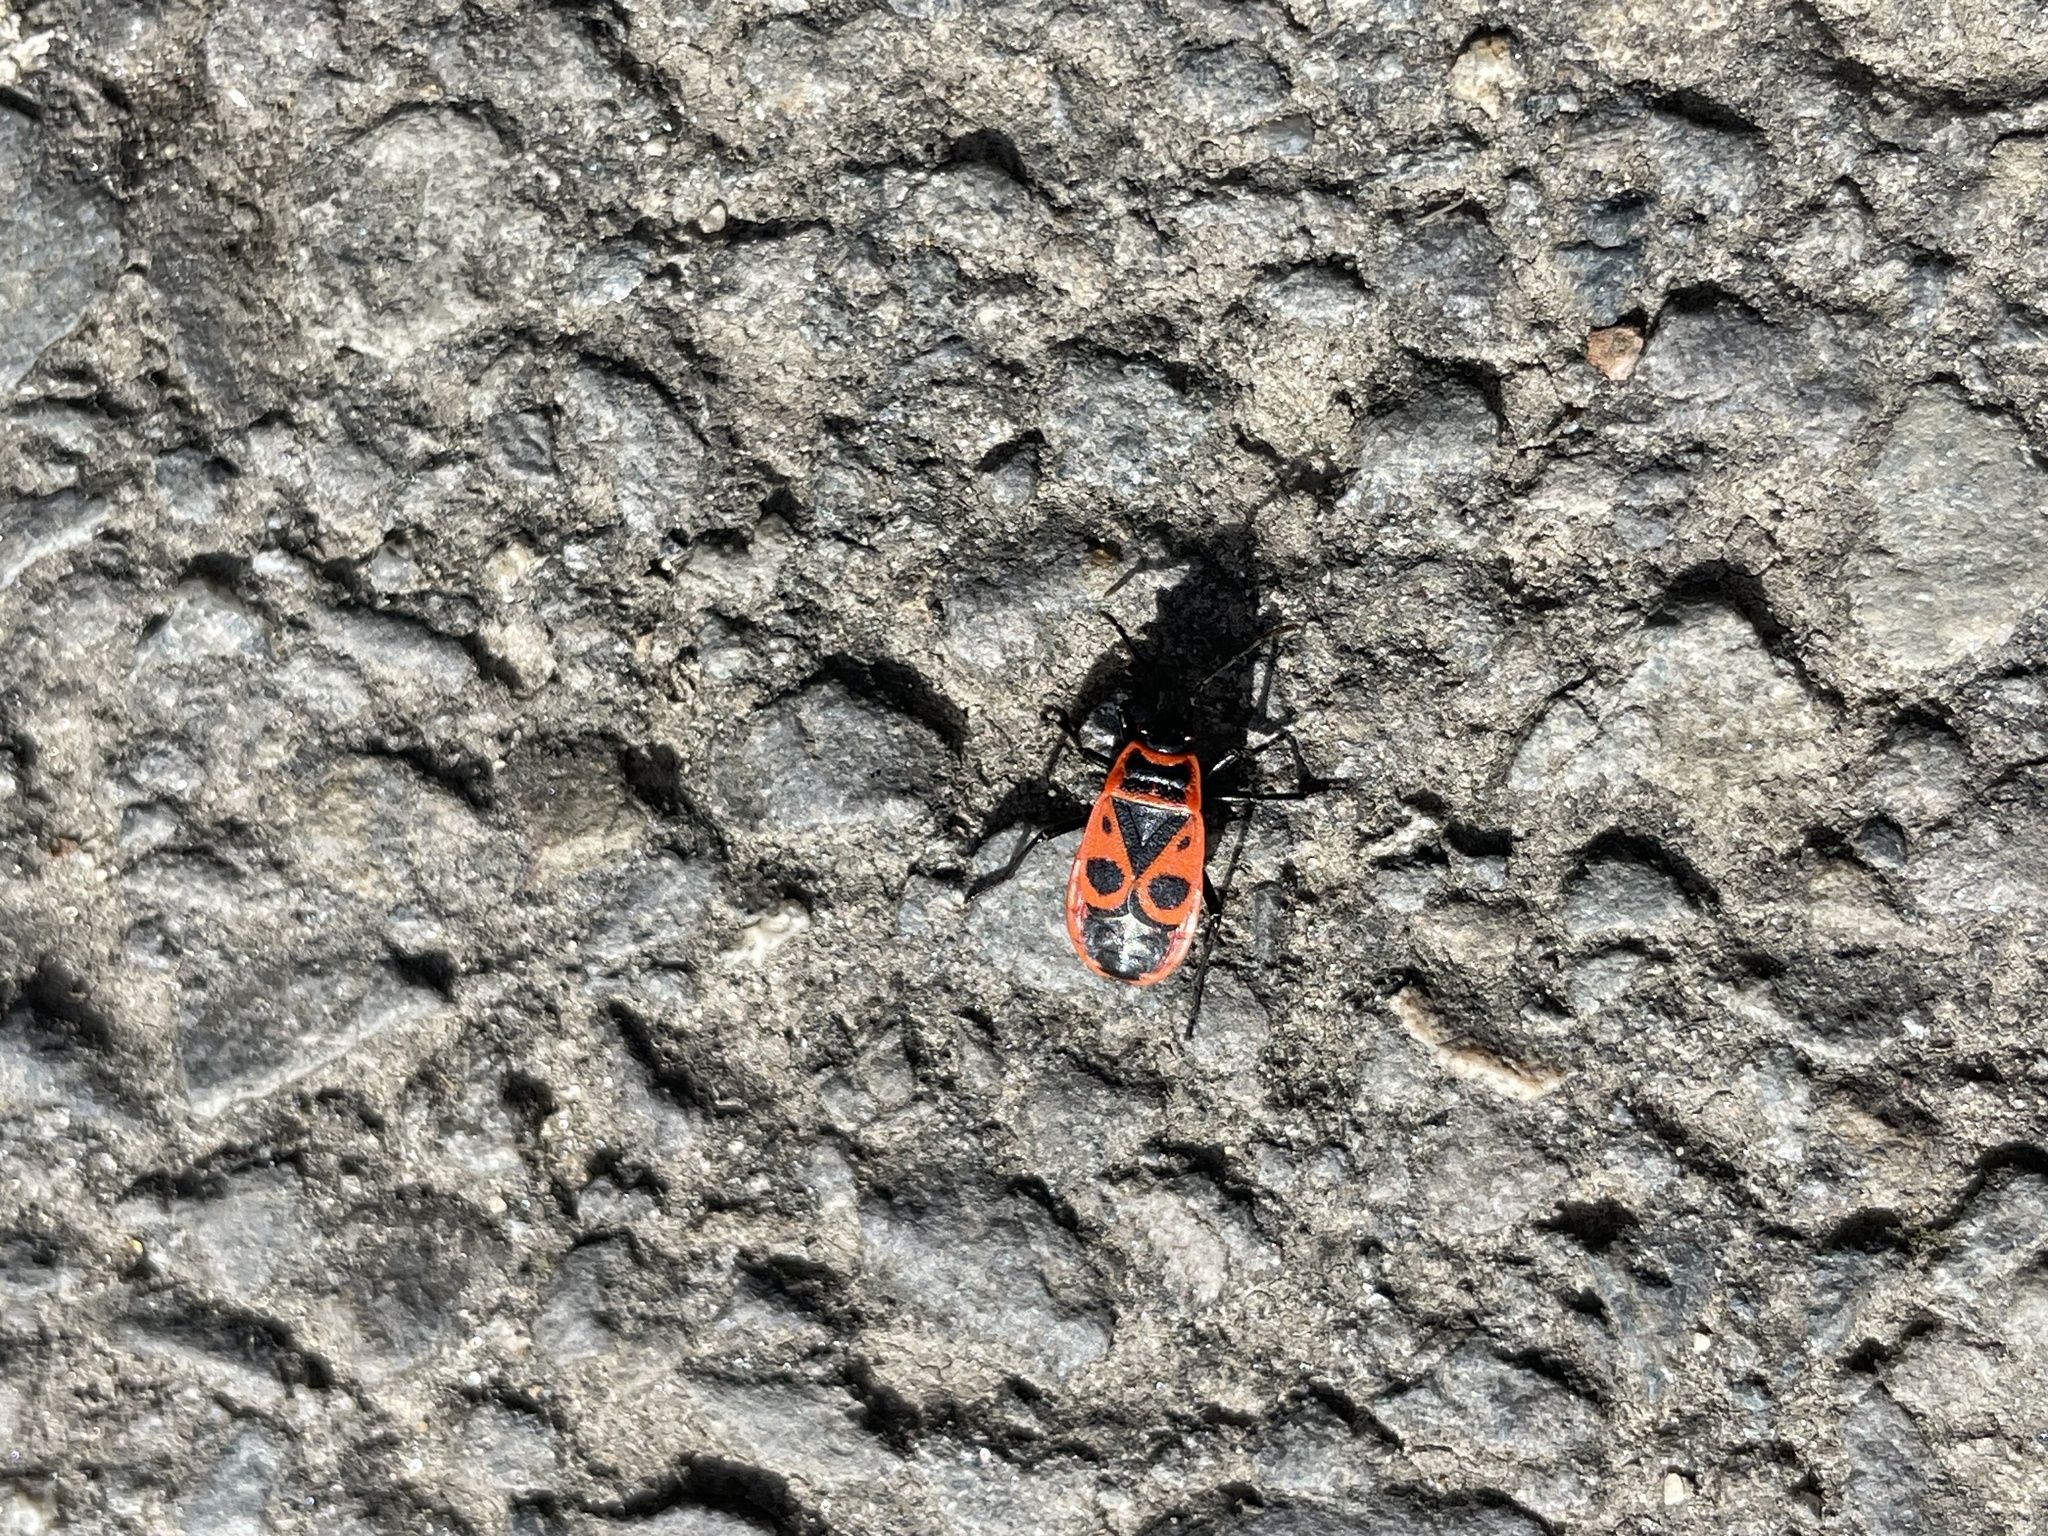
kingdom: Animalia
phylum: Arthropoda
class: Insecta
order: Hemiptera
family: Pyrrhocoridae
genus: Pyrrhocoris
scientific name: Pyrrhocoris apterus
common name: Firebug
